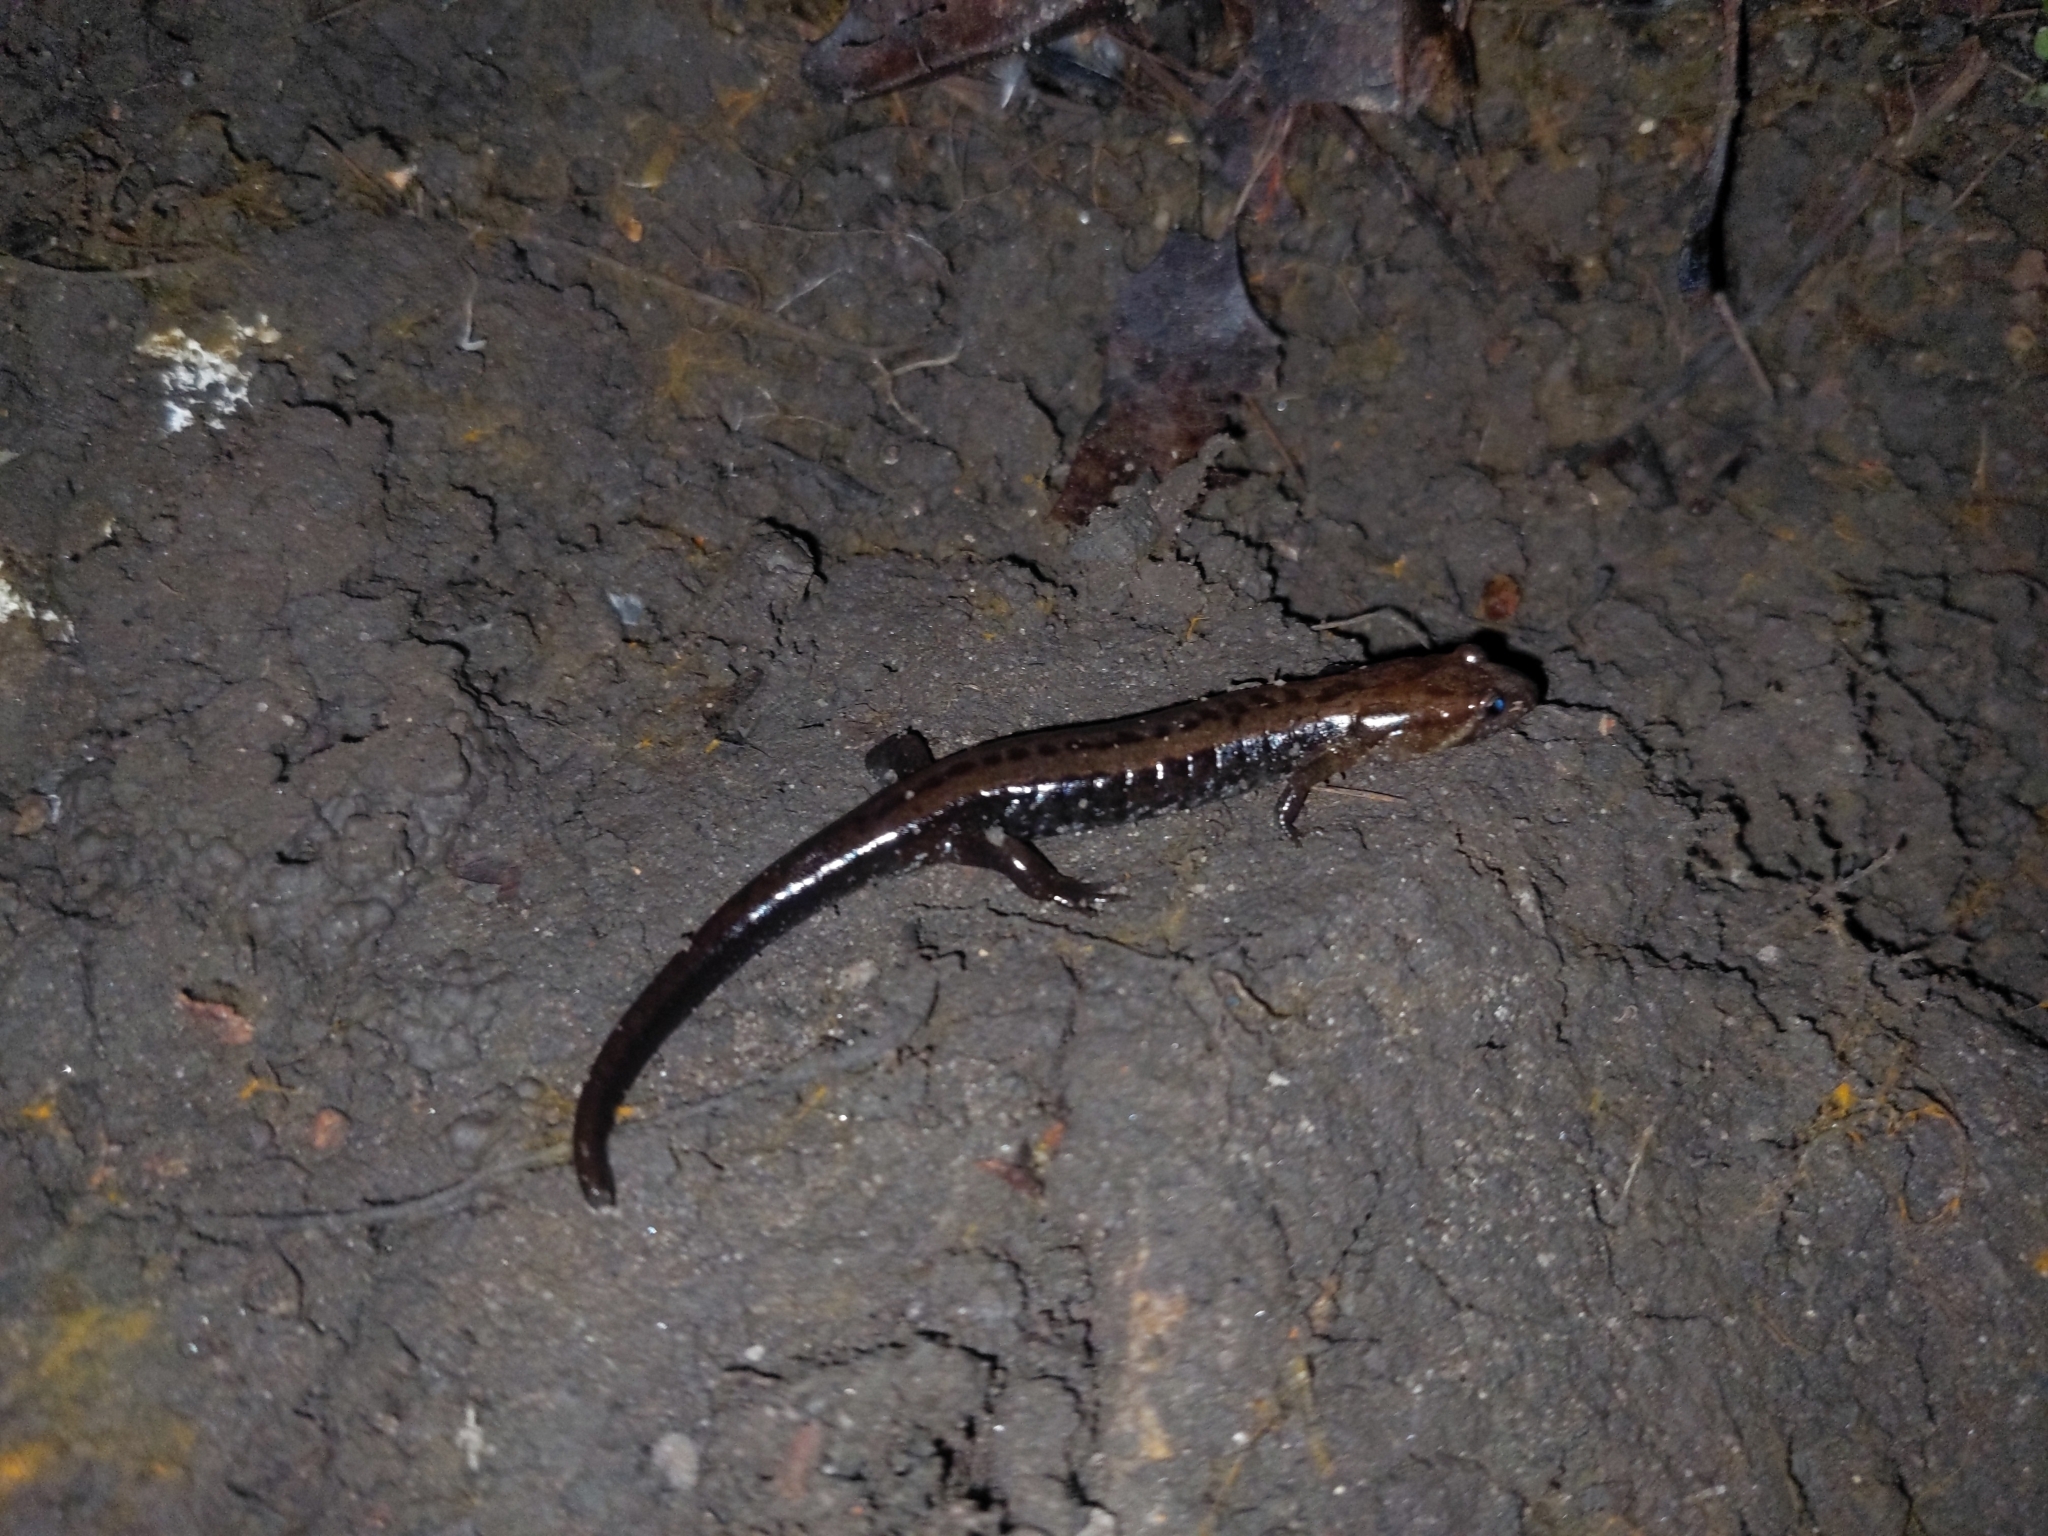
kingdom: Animalia
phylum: Chordata
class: Amphibia
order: Caudata
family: Plethodontidae
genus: Desmognathus
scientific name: Desmognathus ochrophaeus
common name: Allegheny mountain dusky salamander
